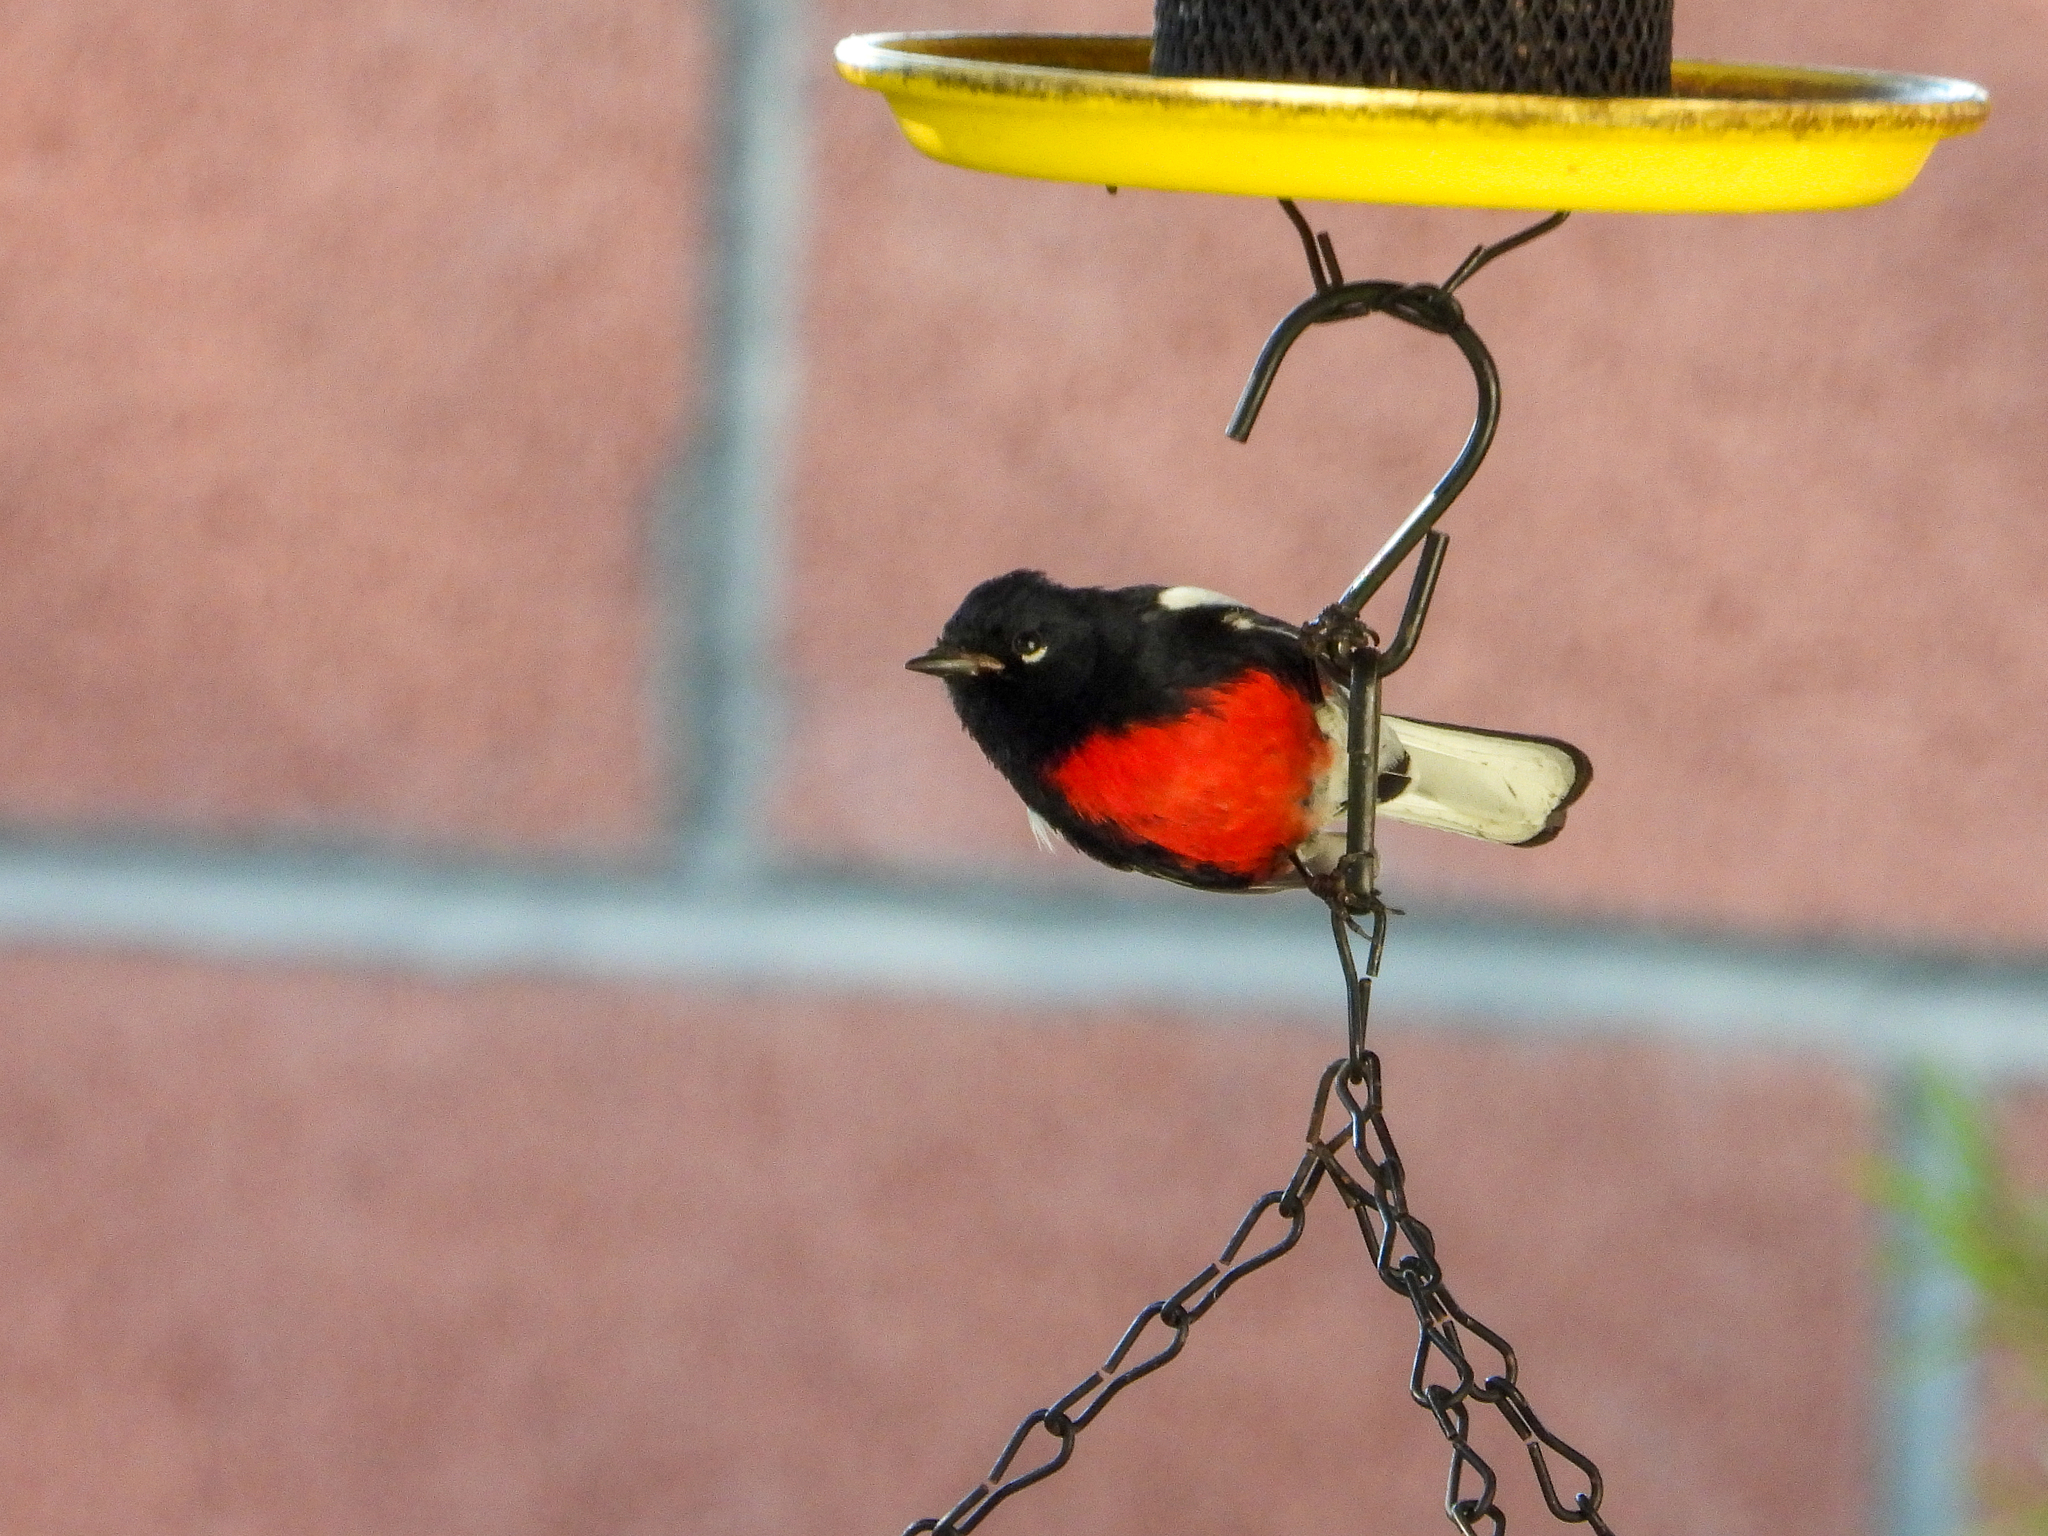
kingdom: Animalia
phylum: Chordata
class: Aves
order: Passeriformes
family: Parulidae
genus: Myioborus
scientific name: Myioborus pictus
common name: Painted whitestart
